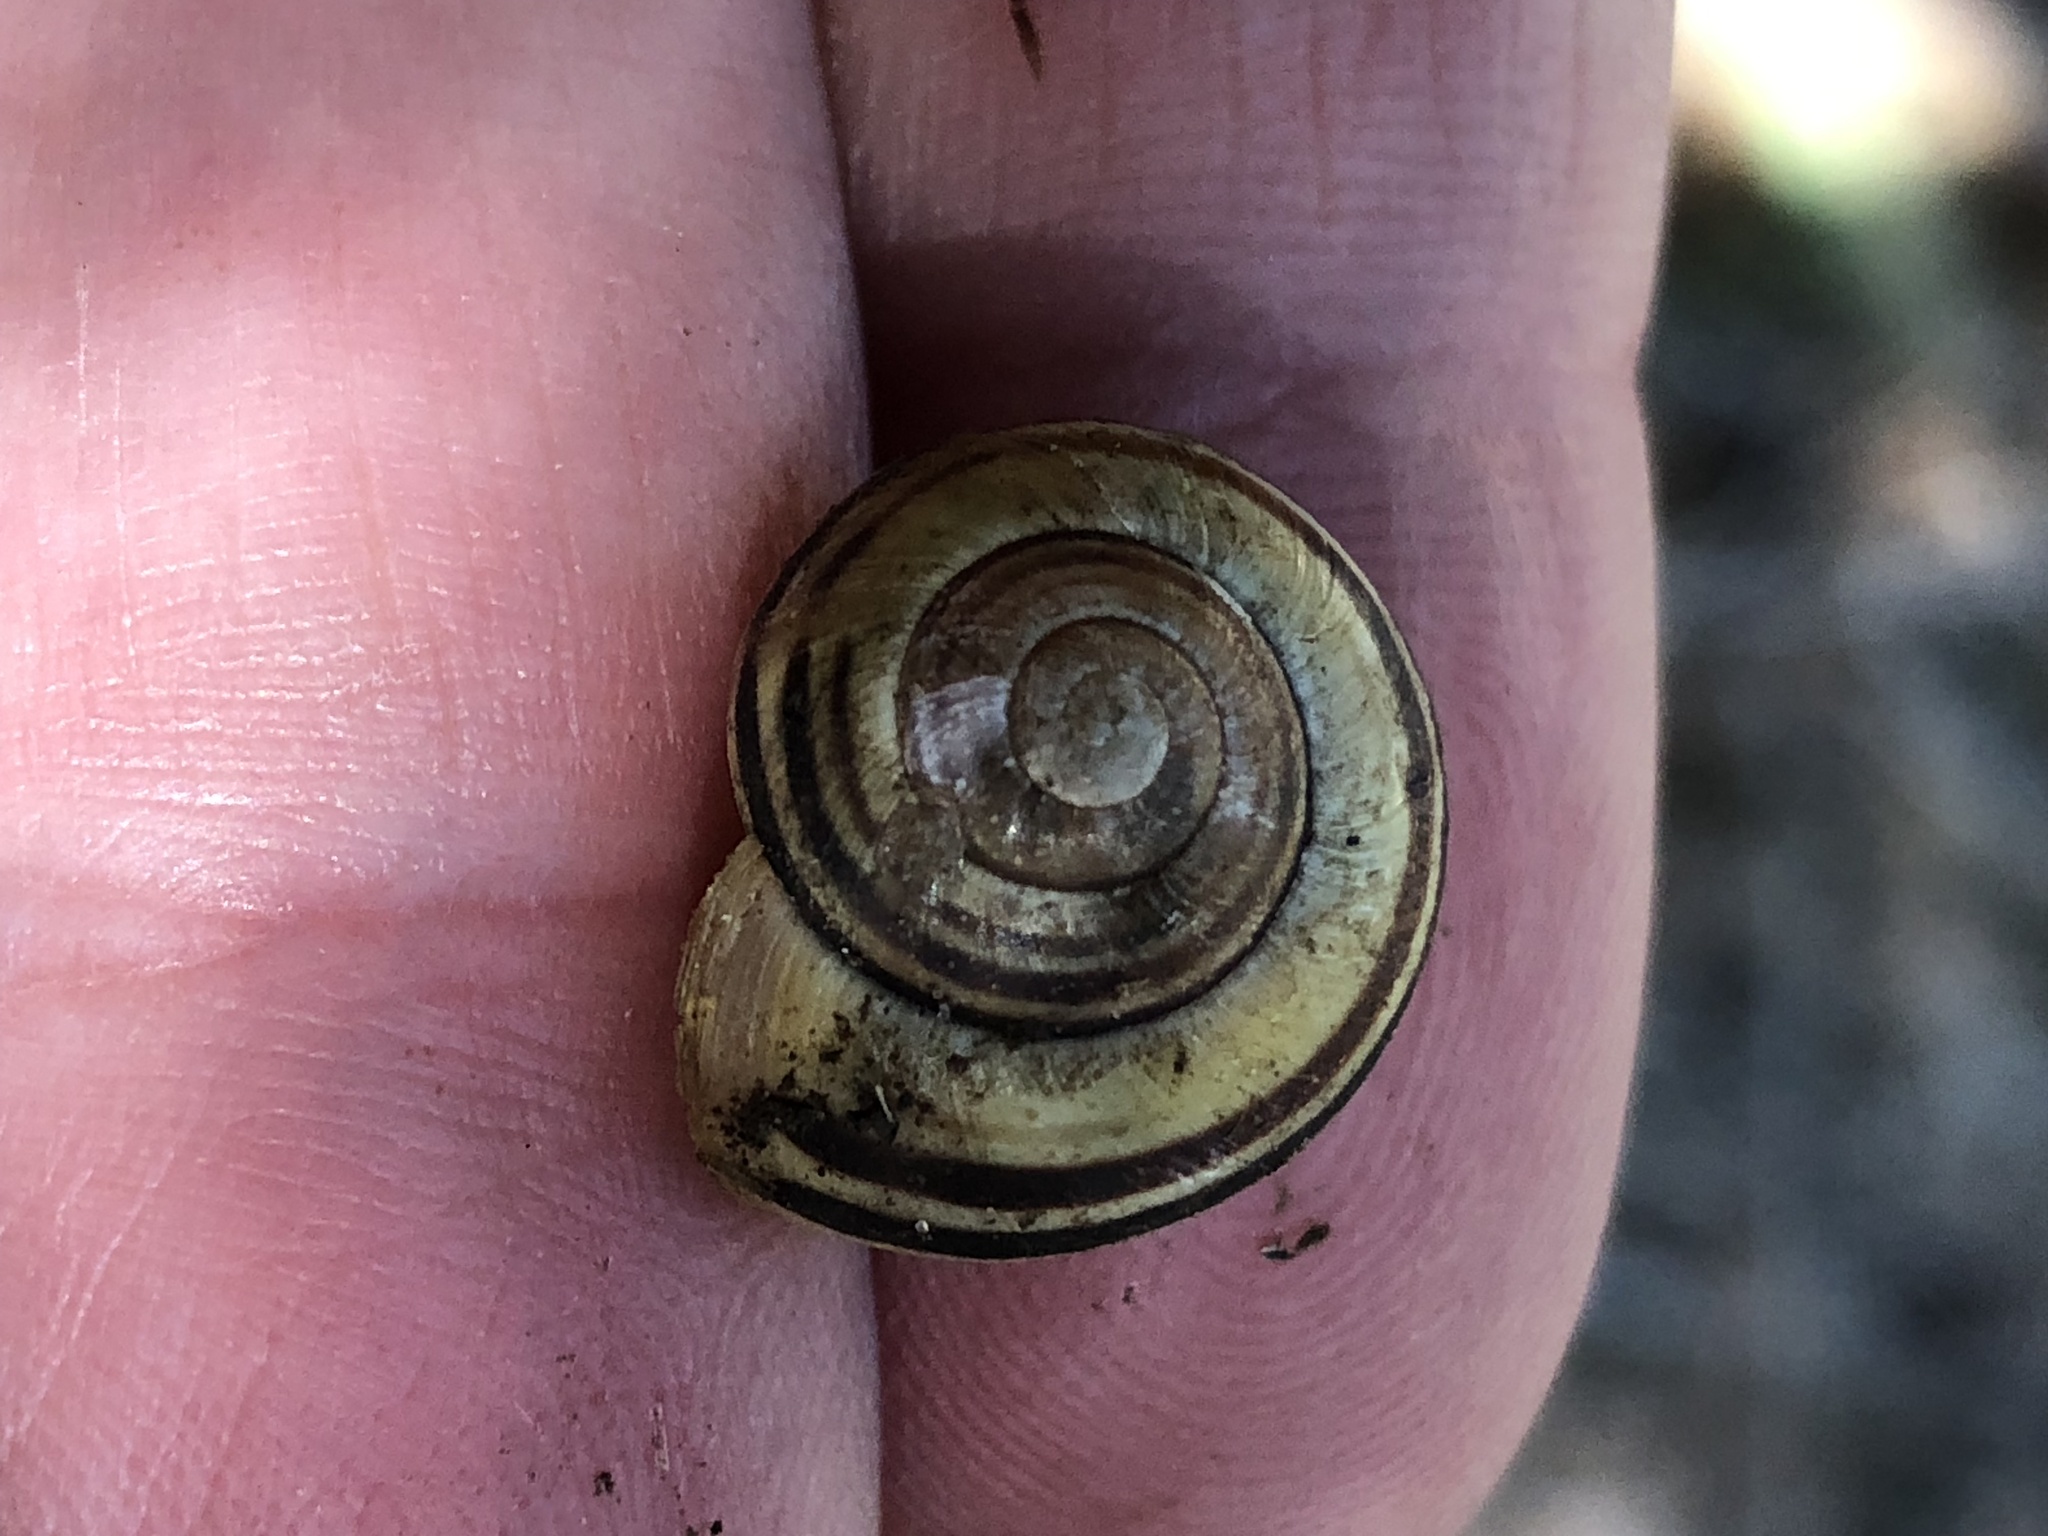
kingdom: Animalia
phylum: Mollusca
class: Gastropoda
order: Stylommatophora
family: Helicidae
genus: Cepaea
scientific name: Cepaea nemoralis
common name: Grovesnail
